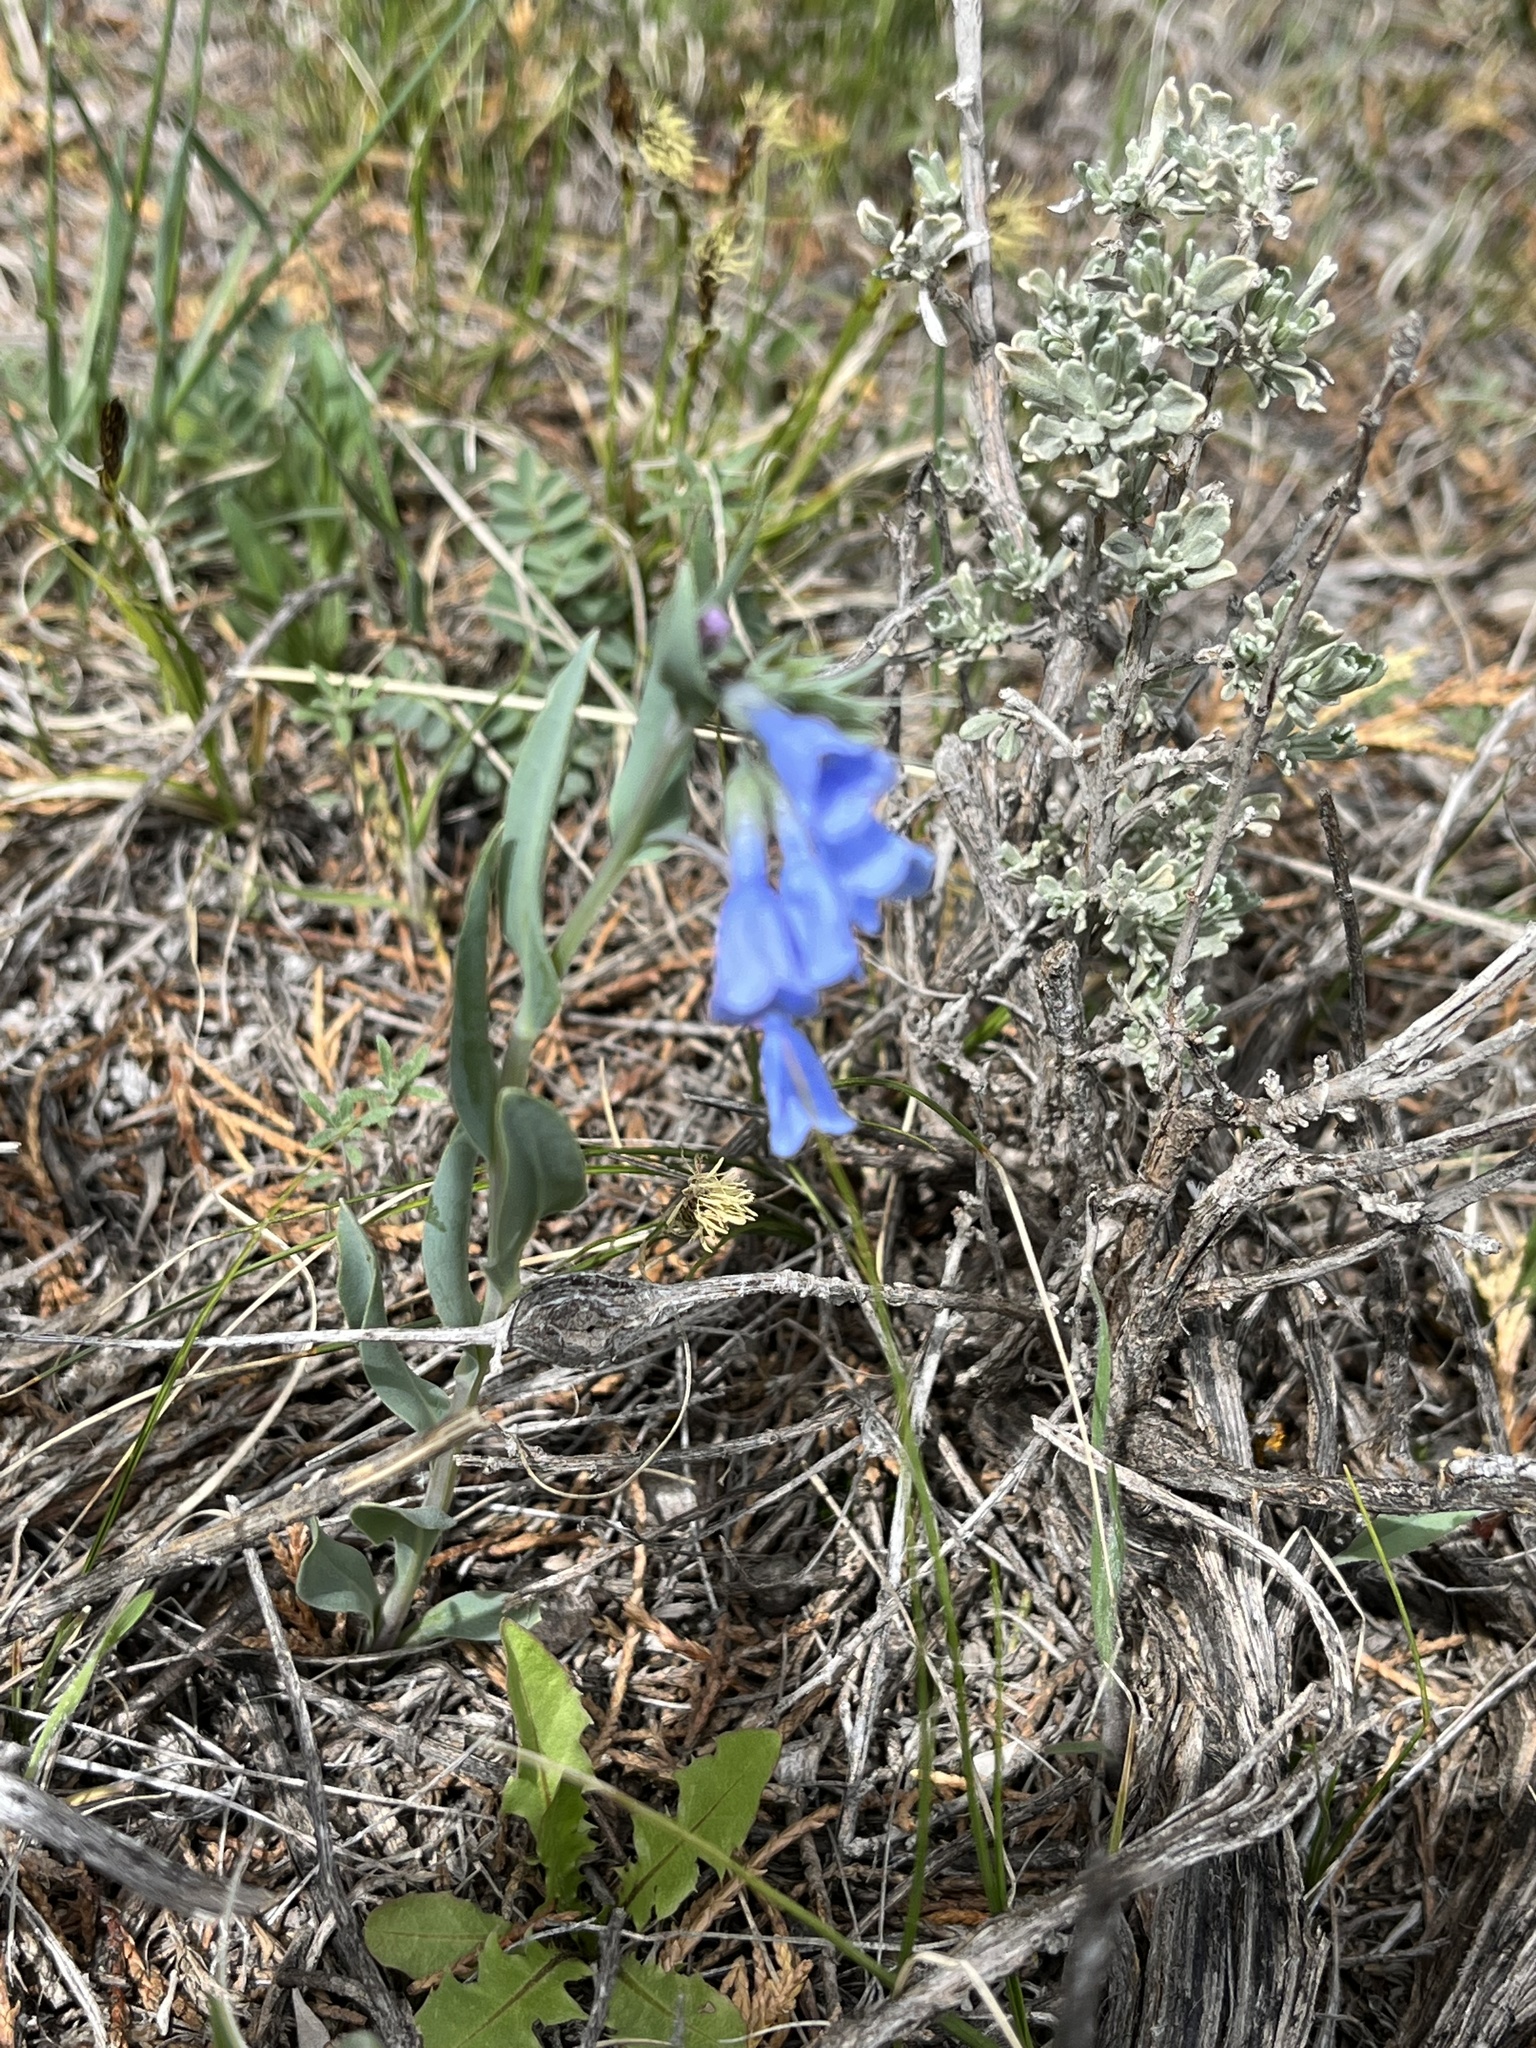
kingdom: Plantae
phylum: Tracheophyta
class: Magnoliopsida
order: Boraginales
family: Boraginaceae
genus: Mertensia
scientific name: Mertensia lanceolata
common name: Lance-leaved bluebells
